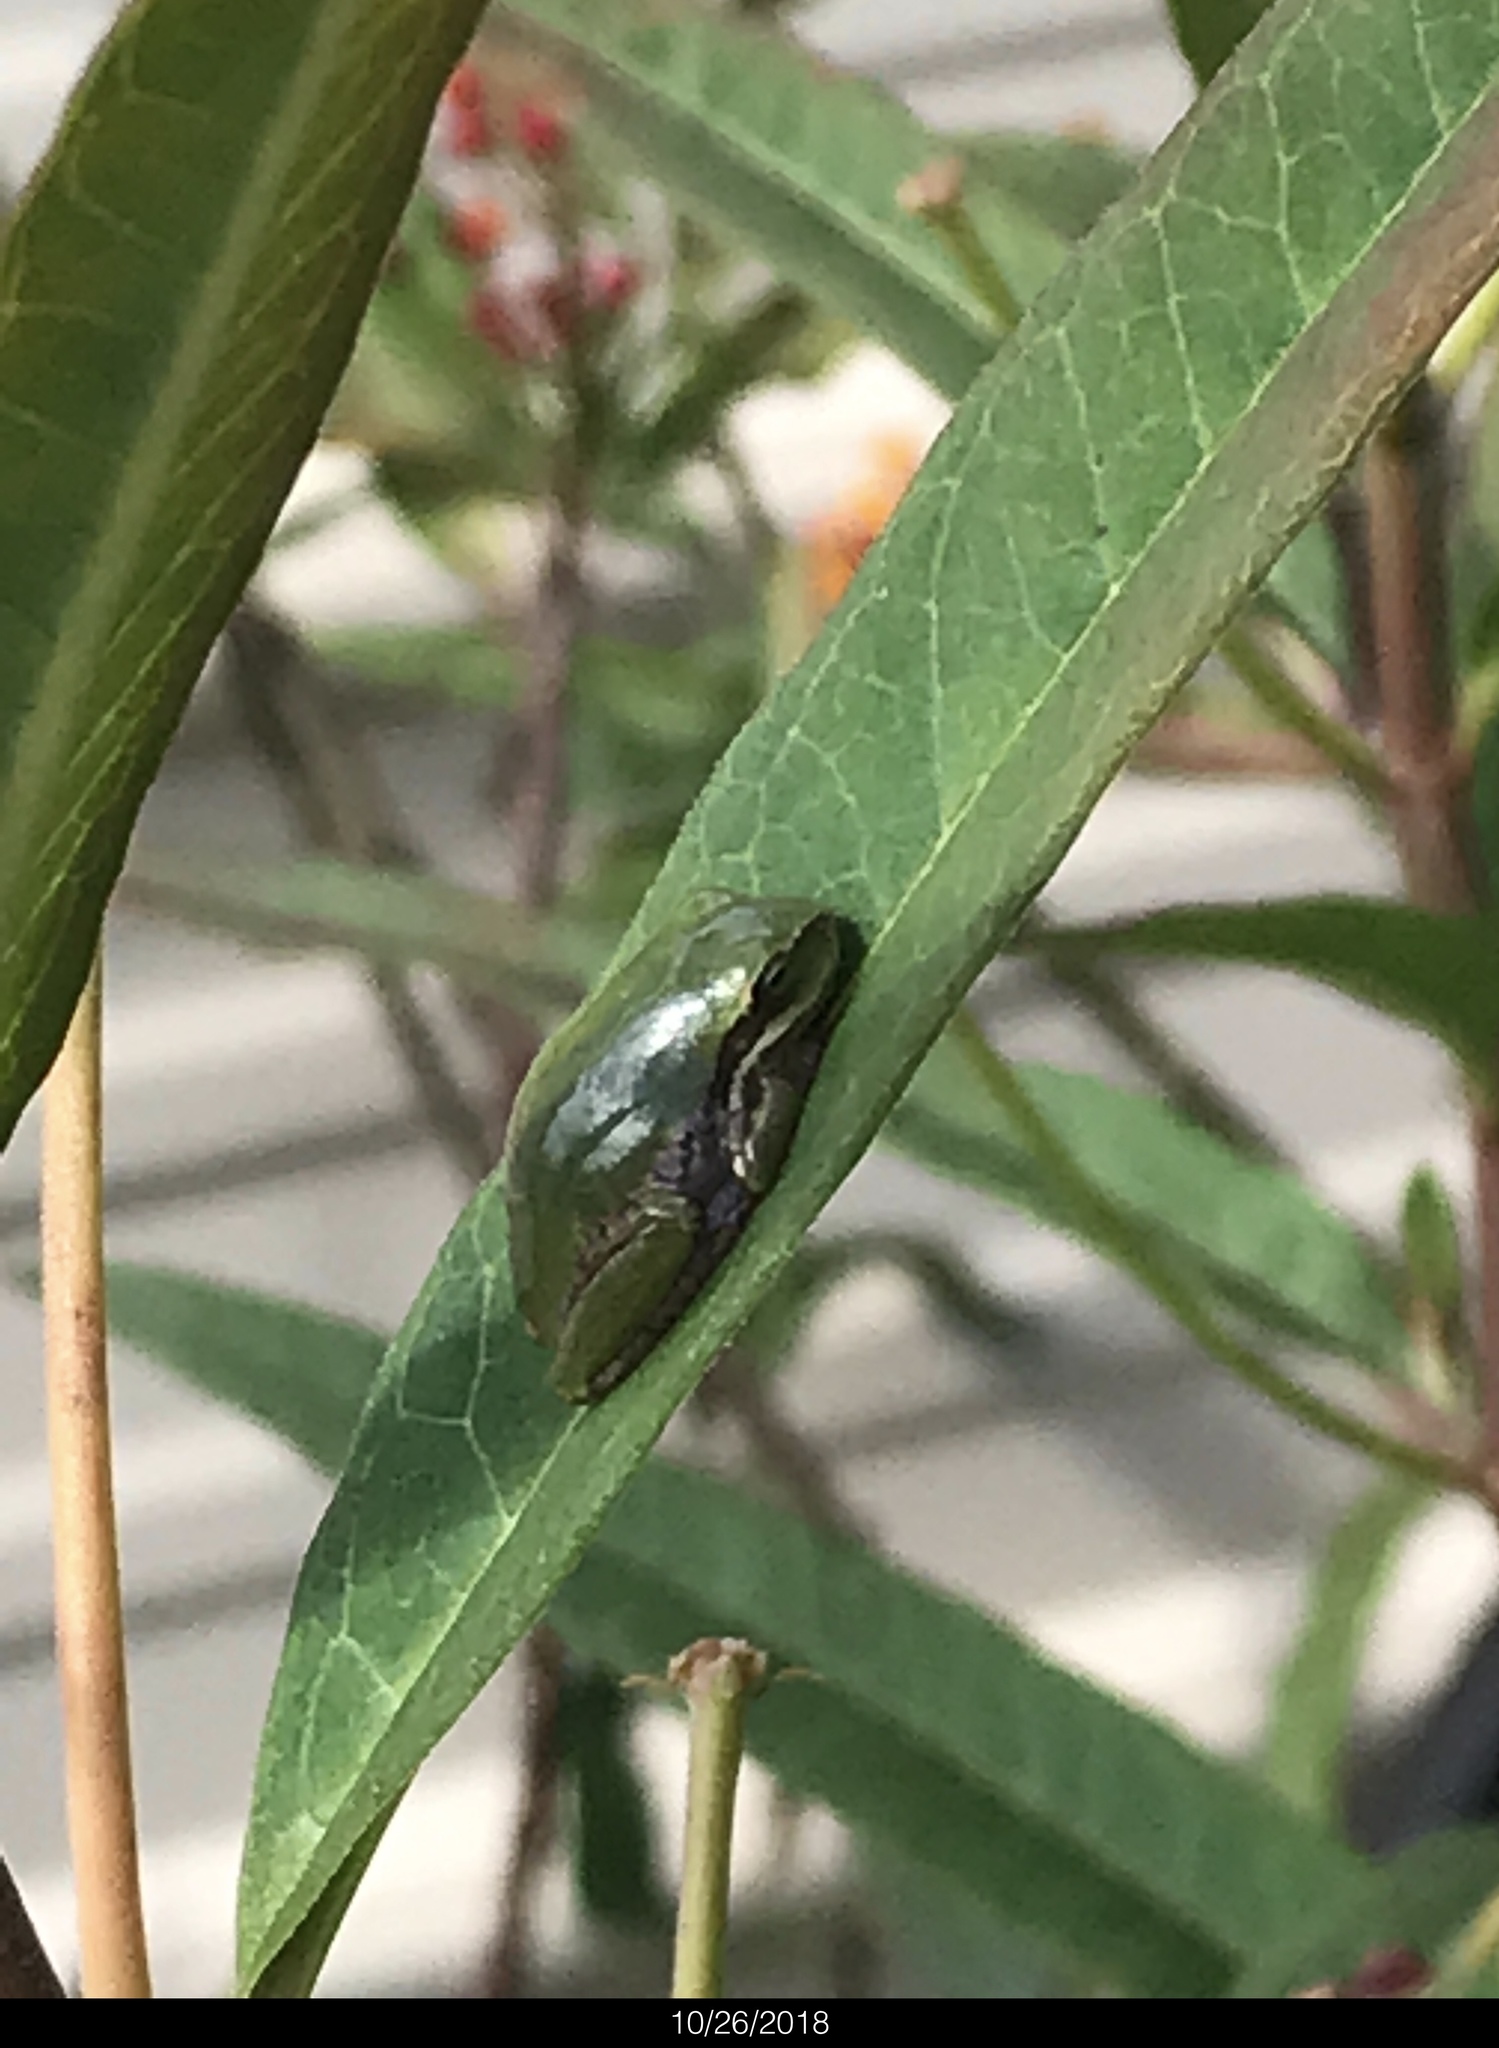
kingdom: Animalia
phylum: Chordata
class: Amphibia
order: Anura
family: Hylidae
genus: Dryophytes
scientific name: Dryophytes squirellus
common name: Squirrel treefrog
